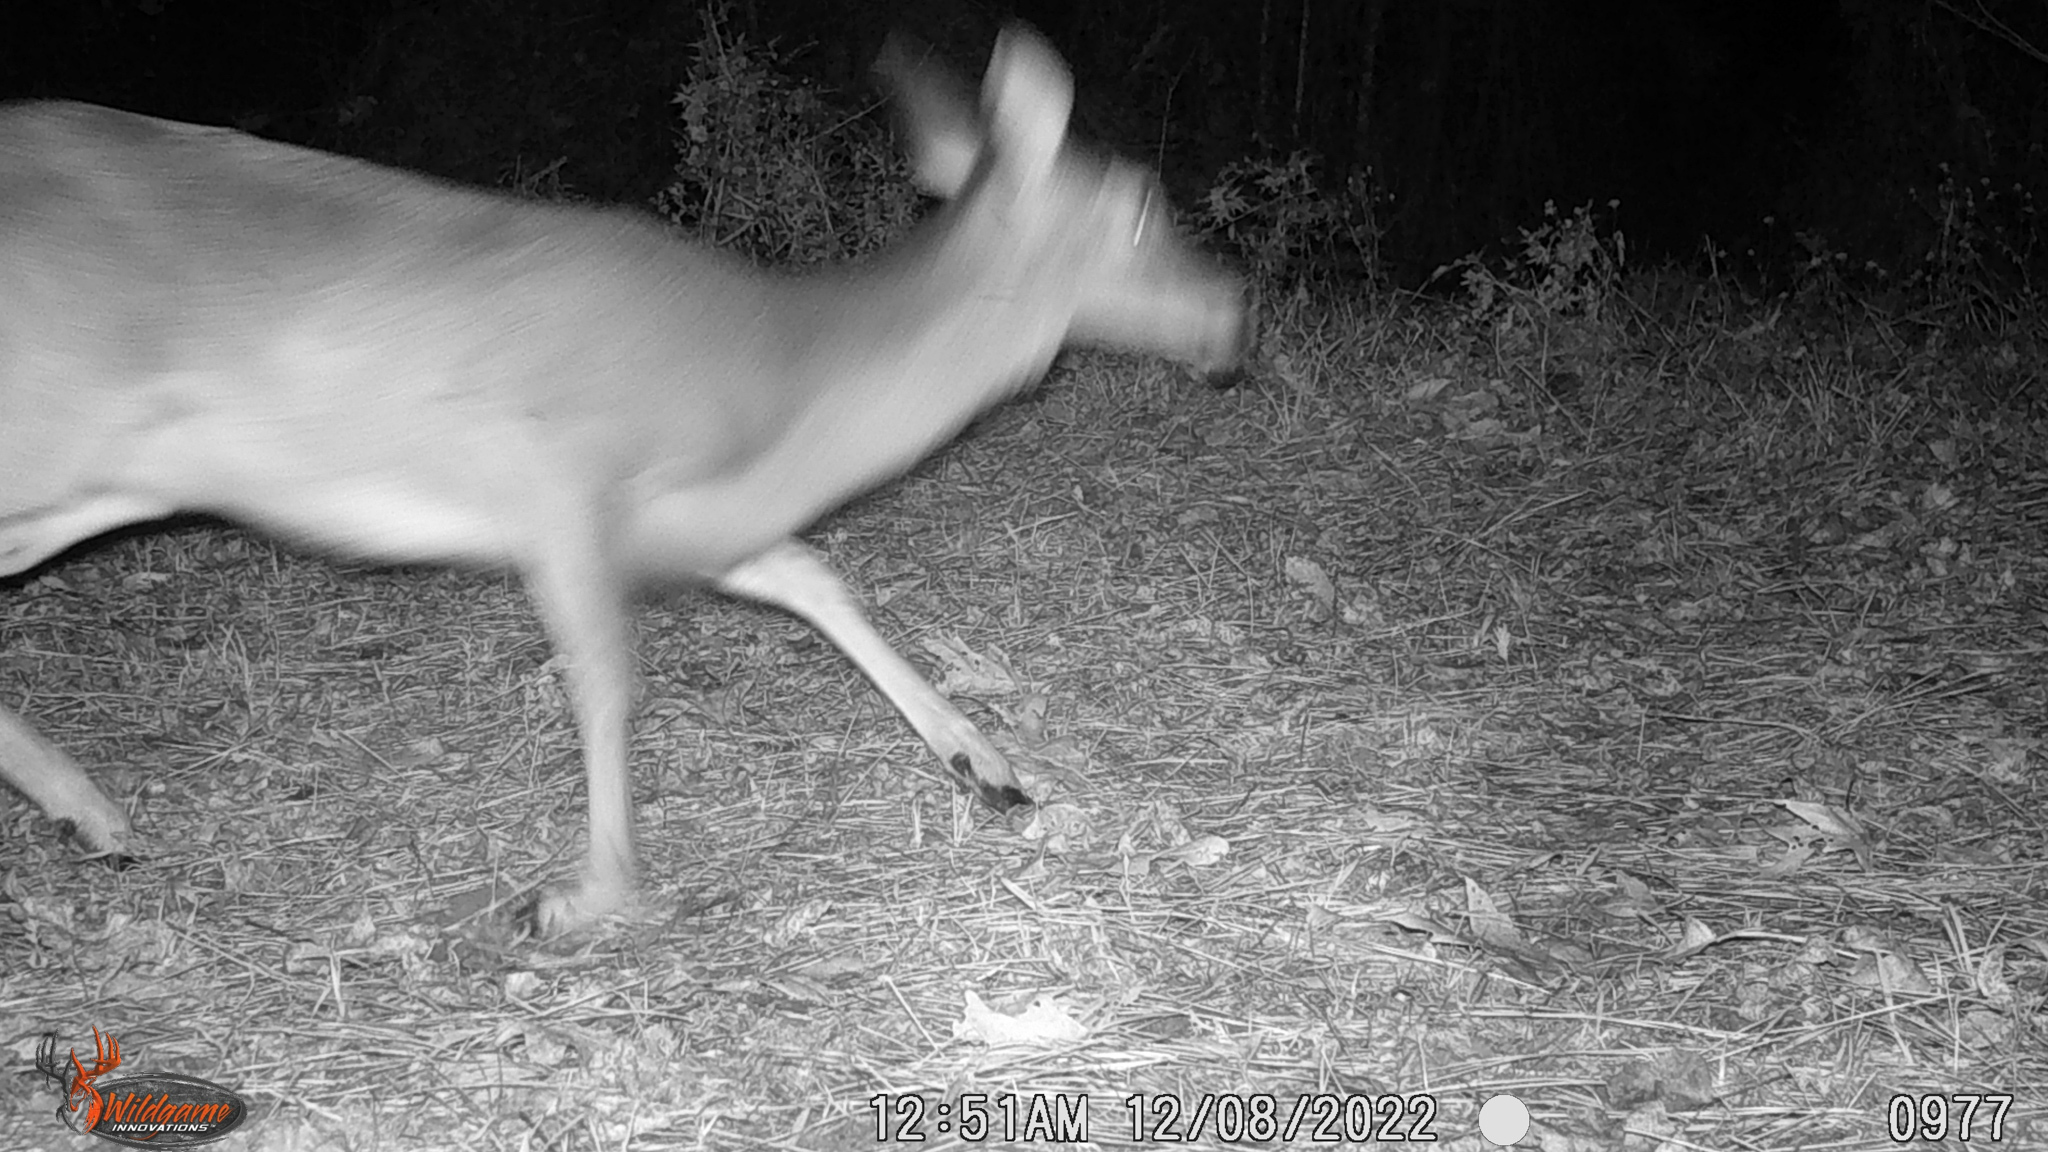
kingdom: Animalia
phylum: Chordata
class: Mammalia
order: Artiodactyla
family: Cervidae
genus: Odocoileus
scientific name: Odocoileus virginianus
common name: White-tailed deer
